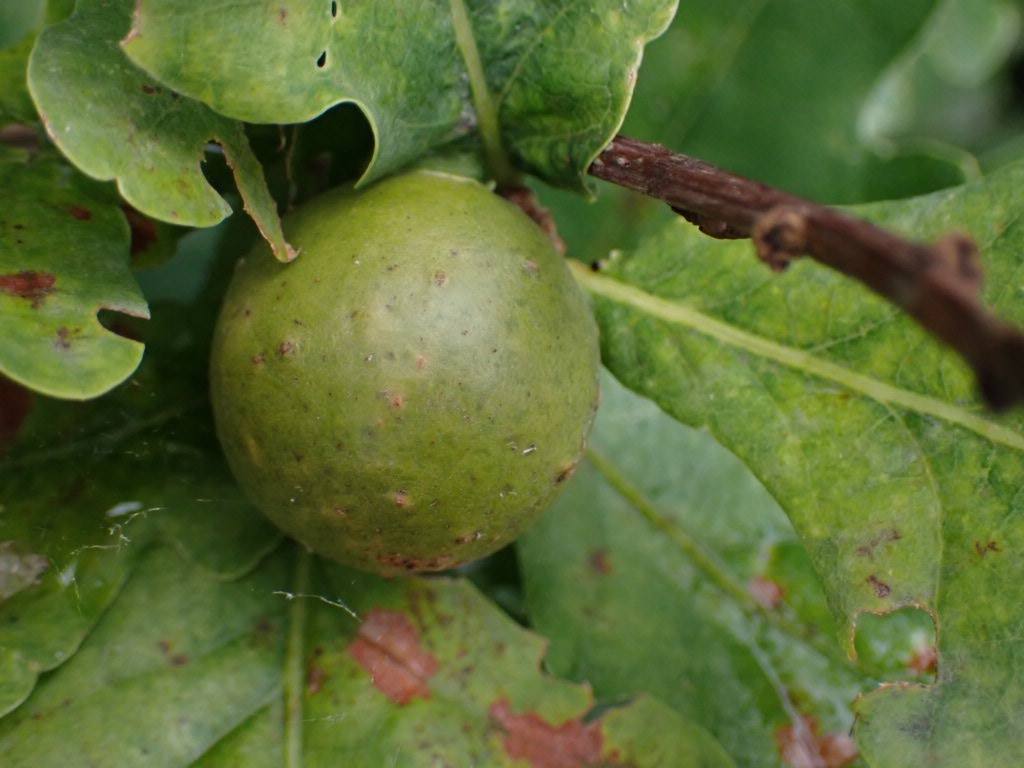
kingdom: Animalia
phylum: Arthropoda
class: Insecta
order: Hymenoptera
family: Cynipidae
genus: Andricus
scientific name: Andricus kollari
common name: Marble gall
